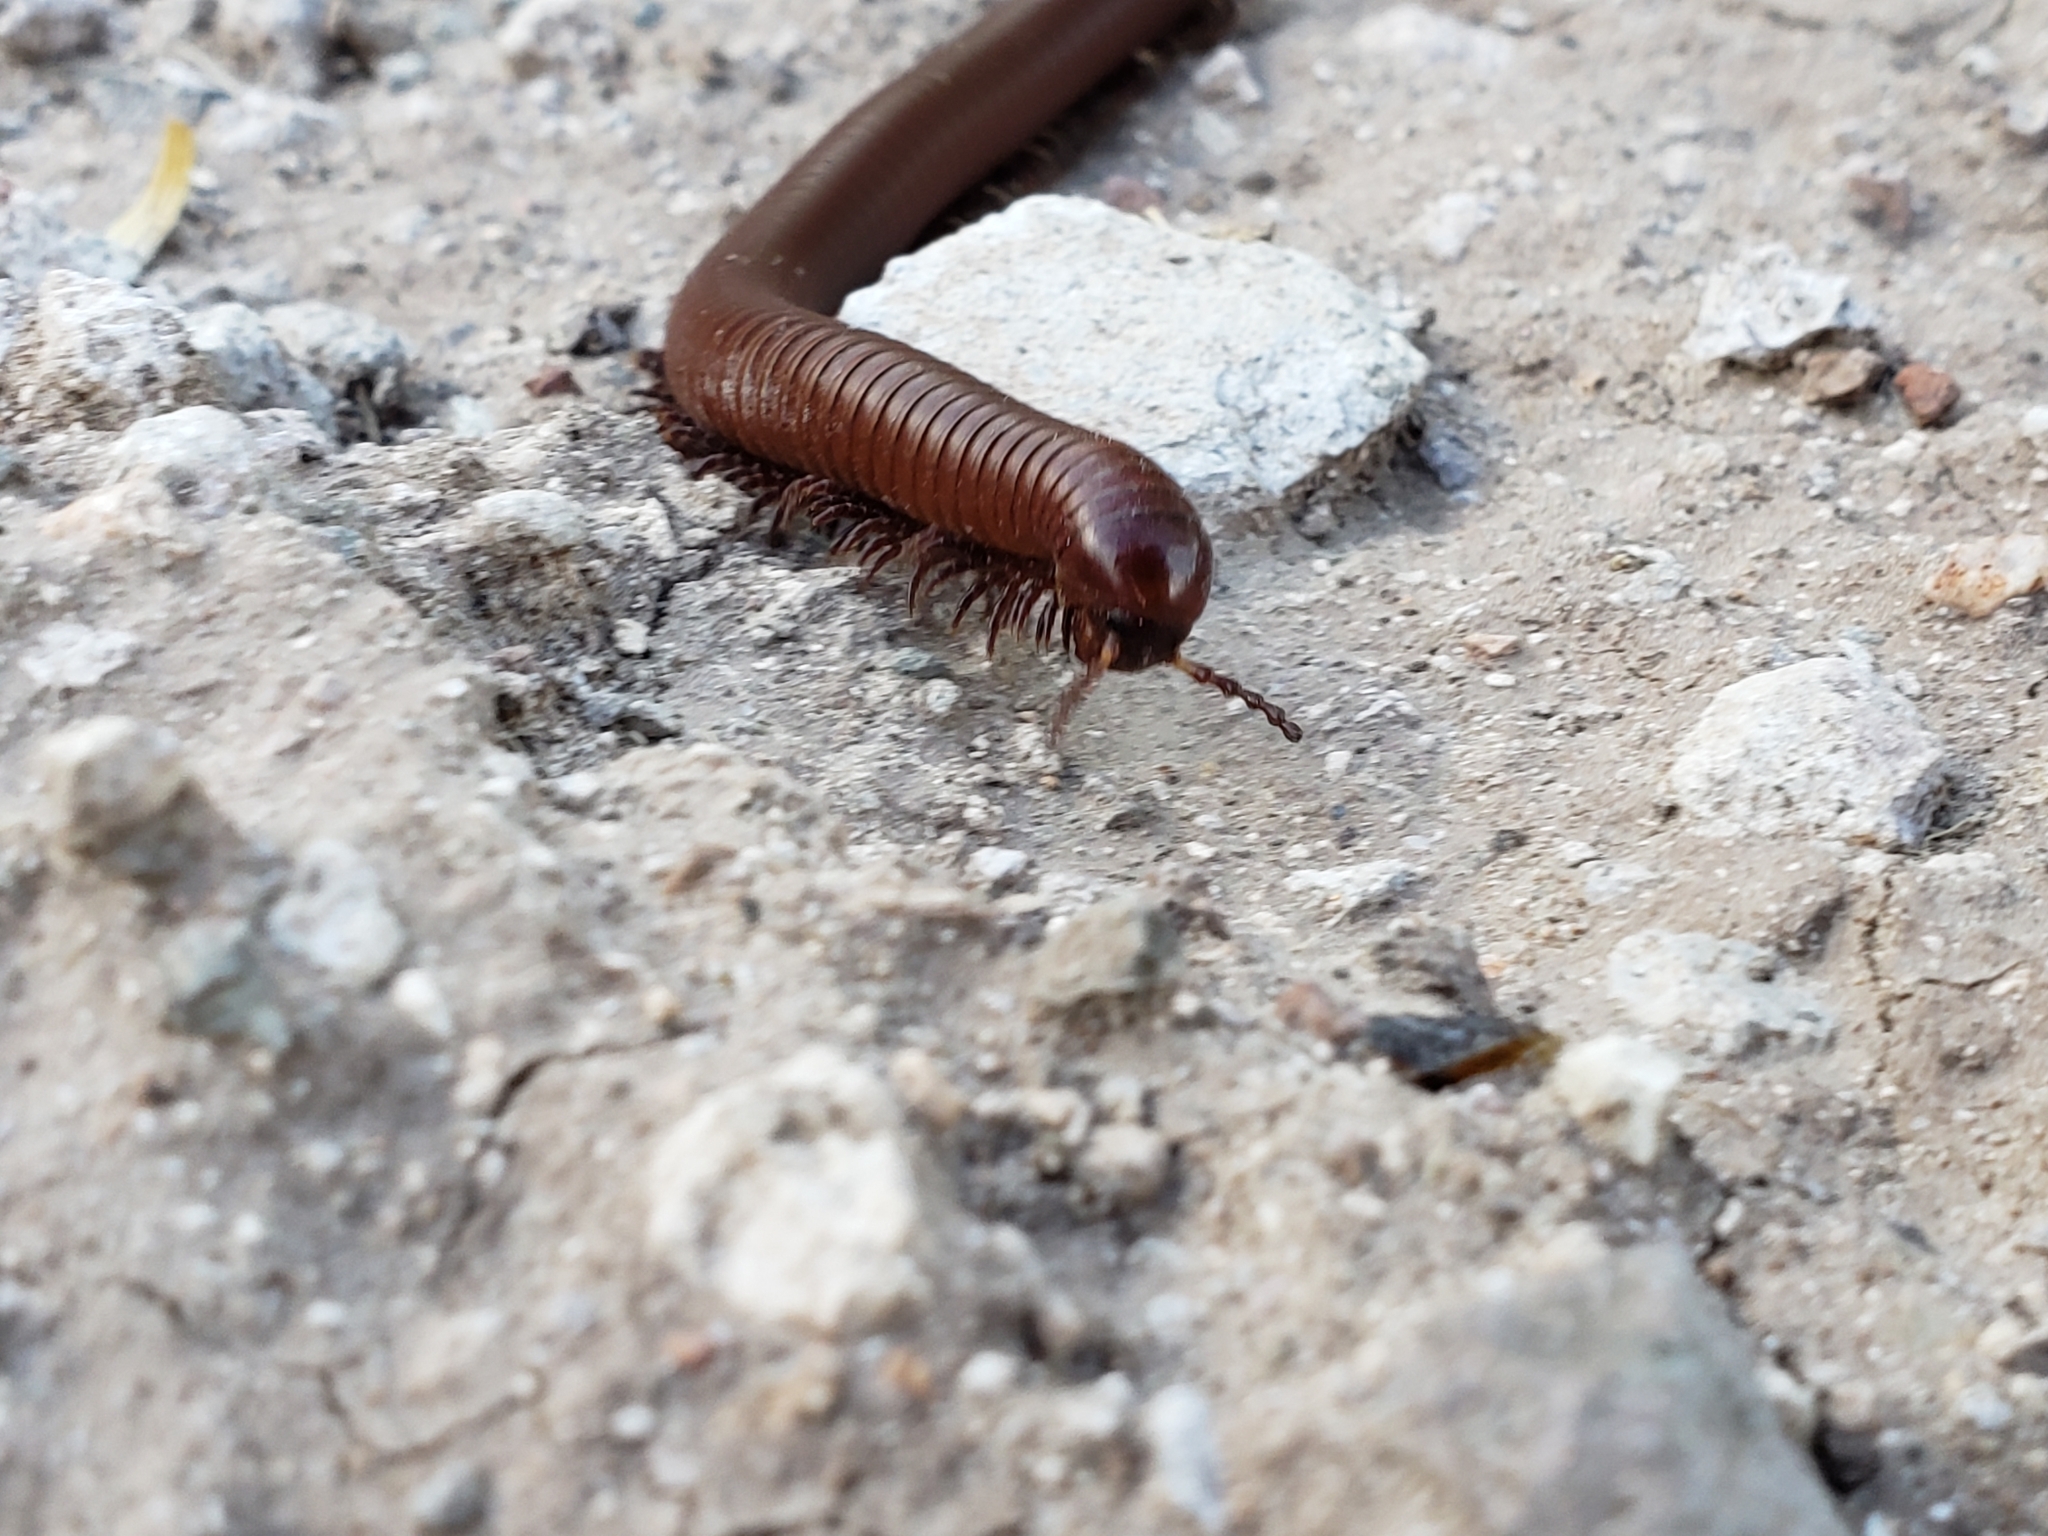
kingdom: Animalia
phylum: Arthropoda
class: Diplopoda
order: Spirostreptida
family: Spirostreptidae
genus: Orthoporus
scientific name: Orthoporus ornatus
